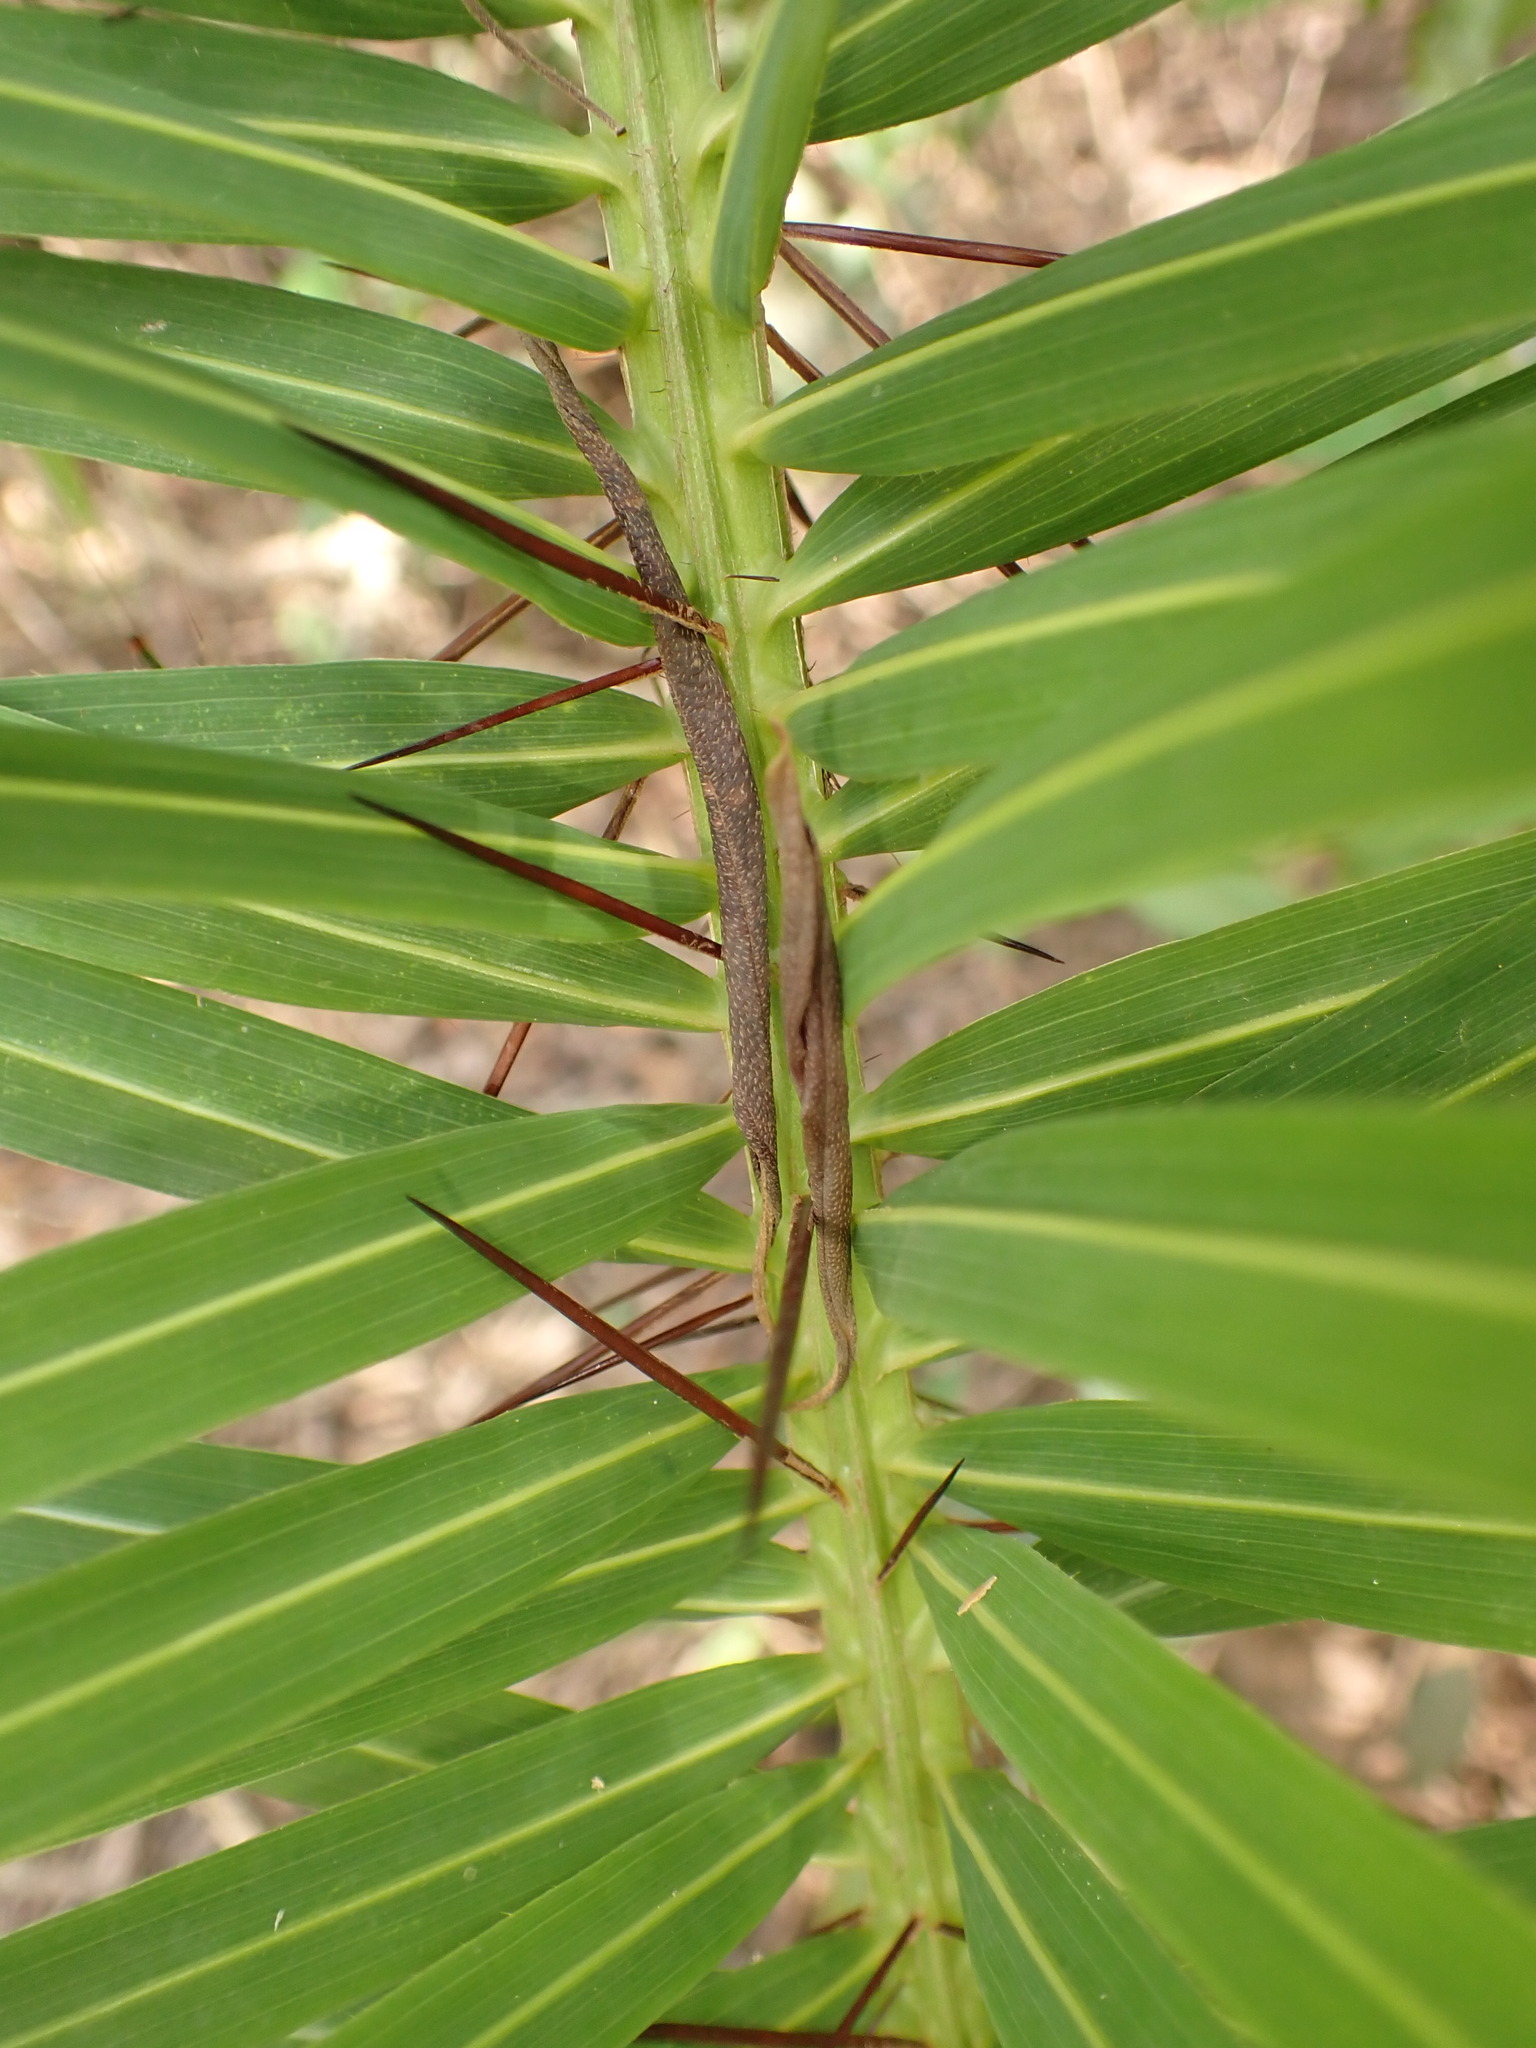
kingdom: Plantae
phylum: Tracheophyta
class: Liliopsida
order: Arecales
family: Arecaceae
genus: Acrocomia
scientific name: Acrocomia aculeata
